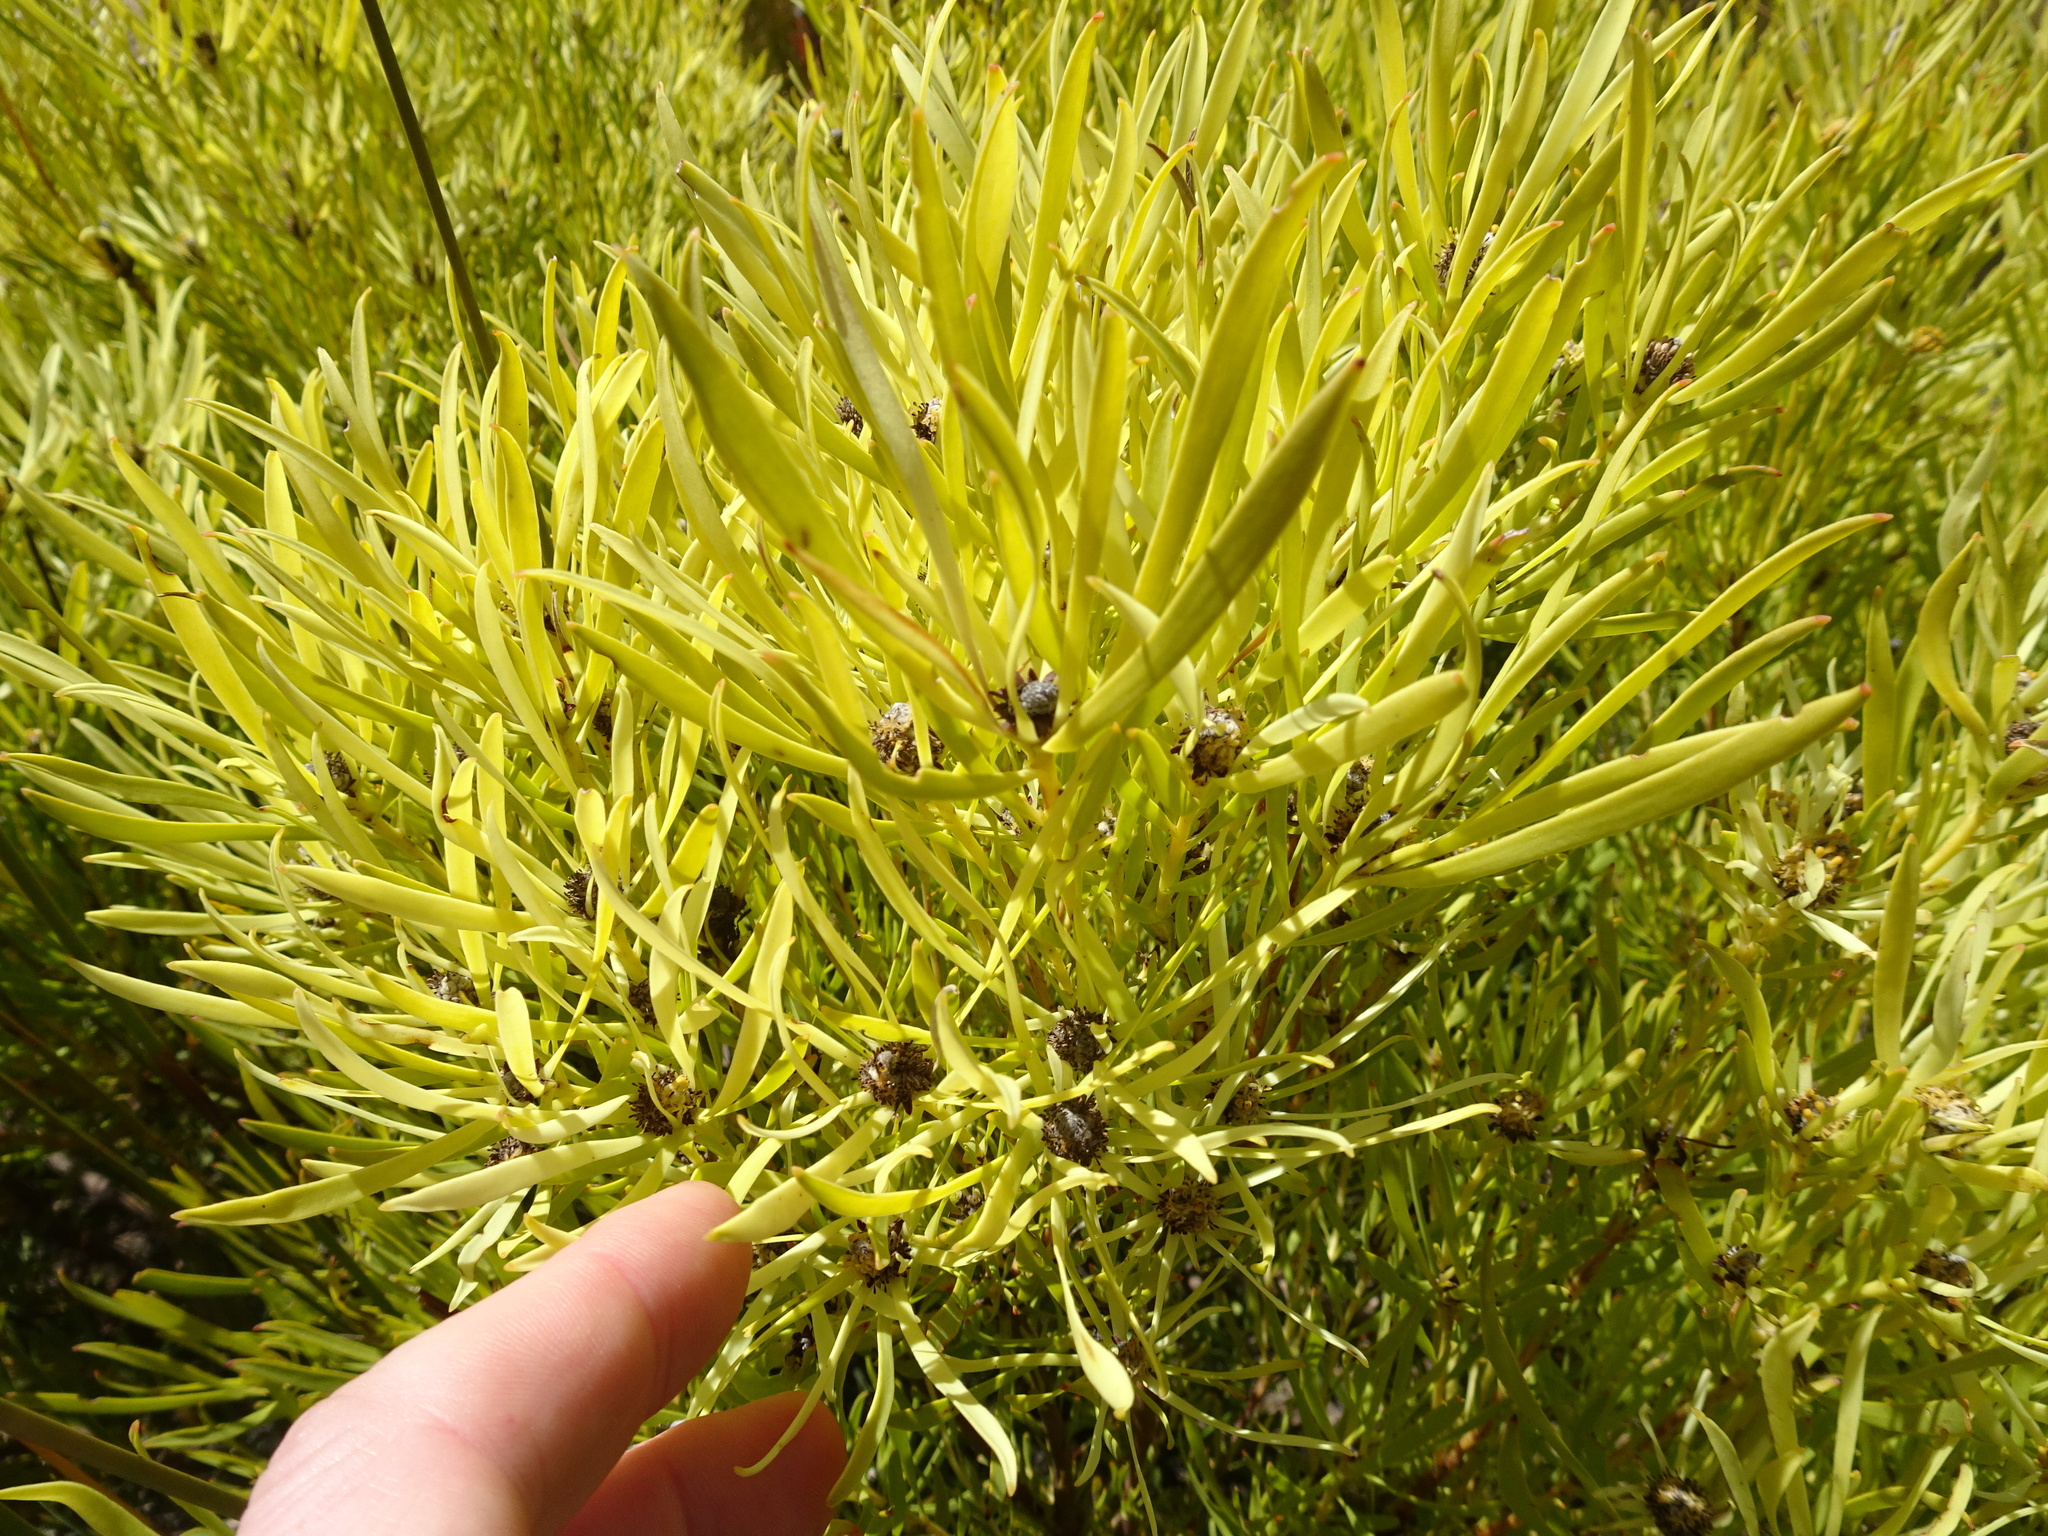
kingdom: Plantae
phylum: Tracheophyta
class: Magnoliopsida
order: Proteales
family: Proteaceae
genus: Leucadendron
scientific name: Leucadendron salignum
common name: Common sunshine conebush
